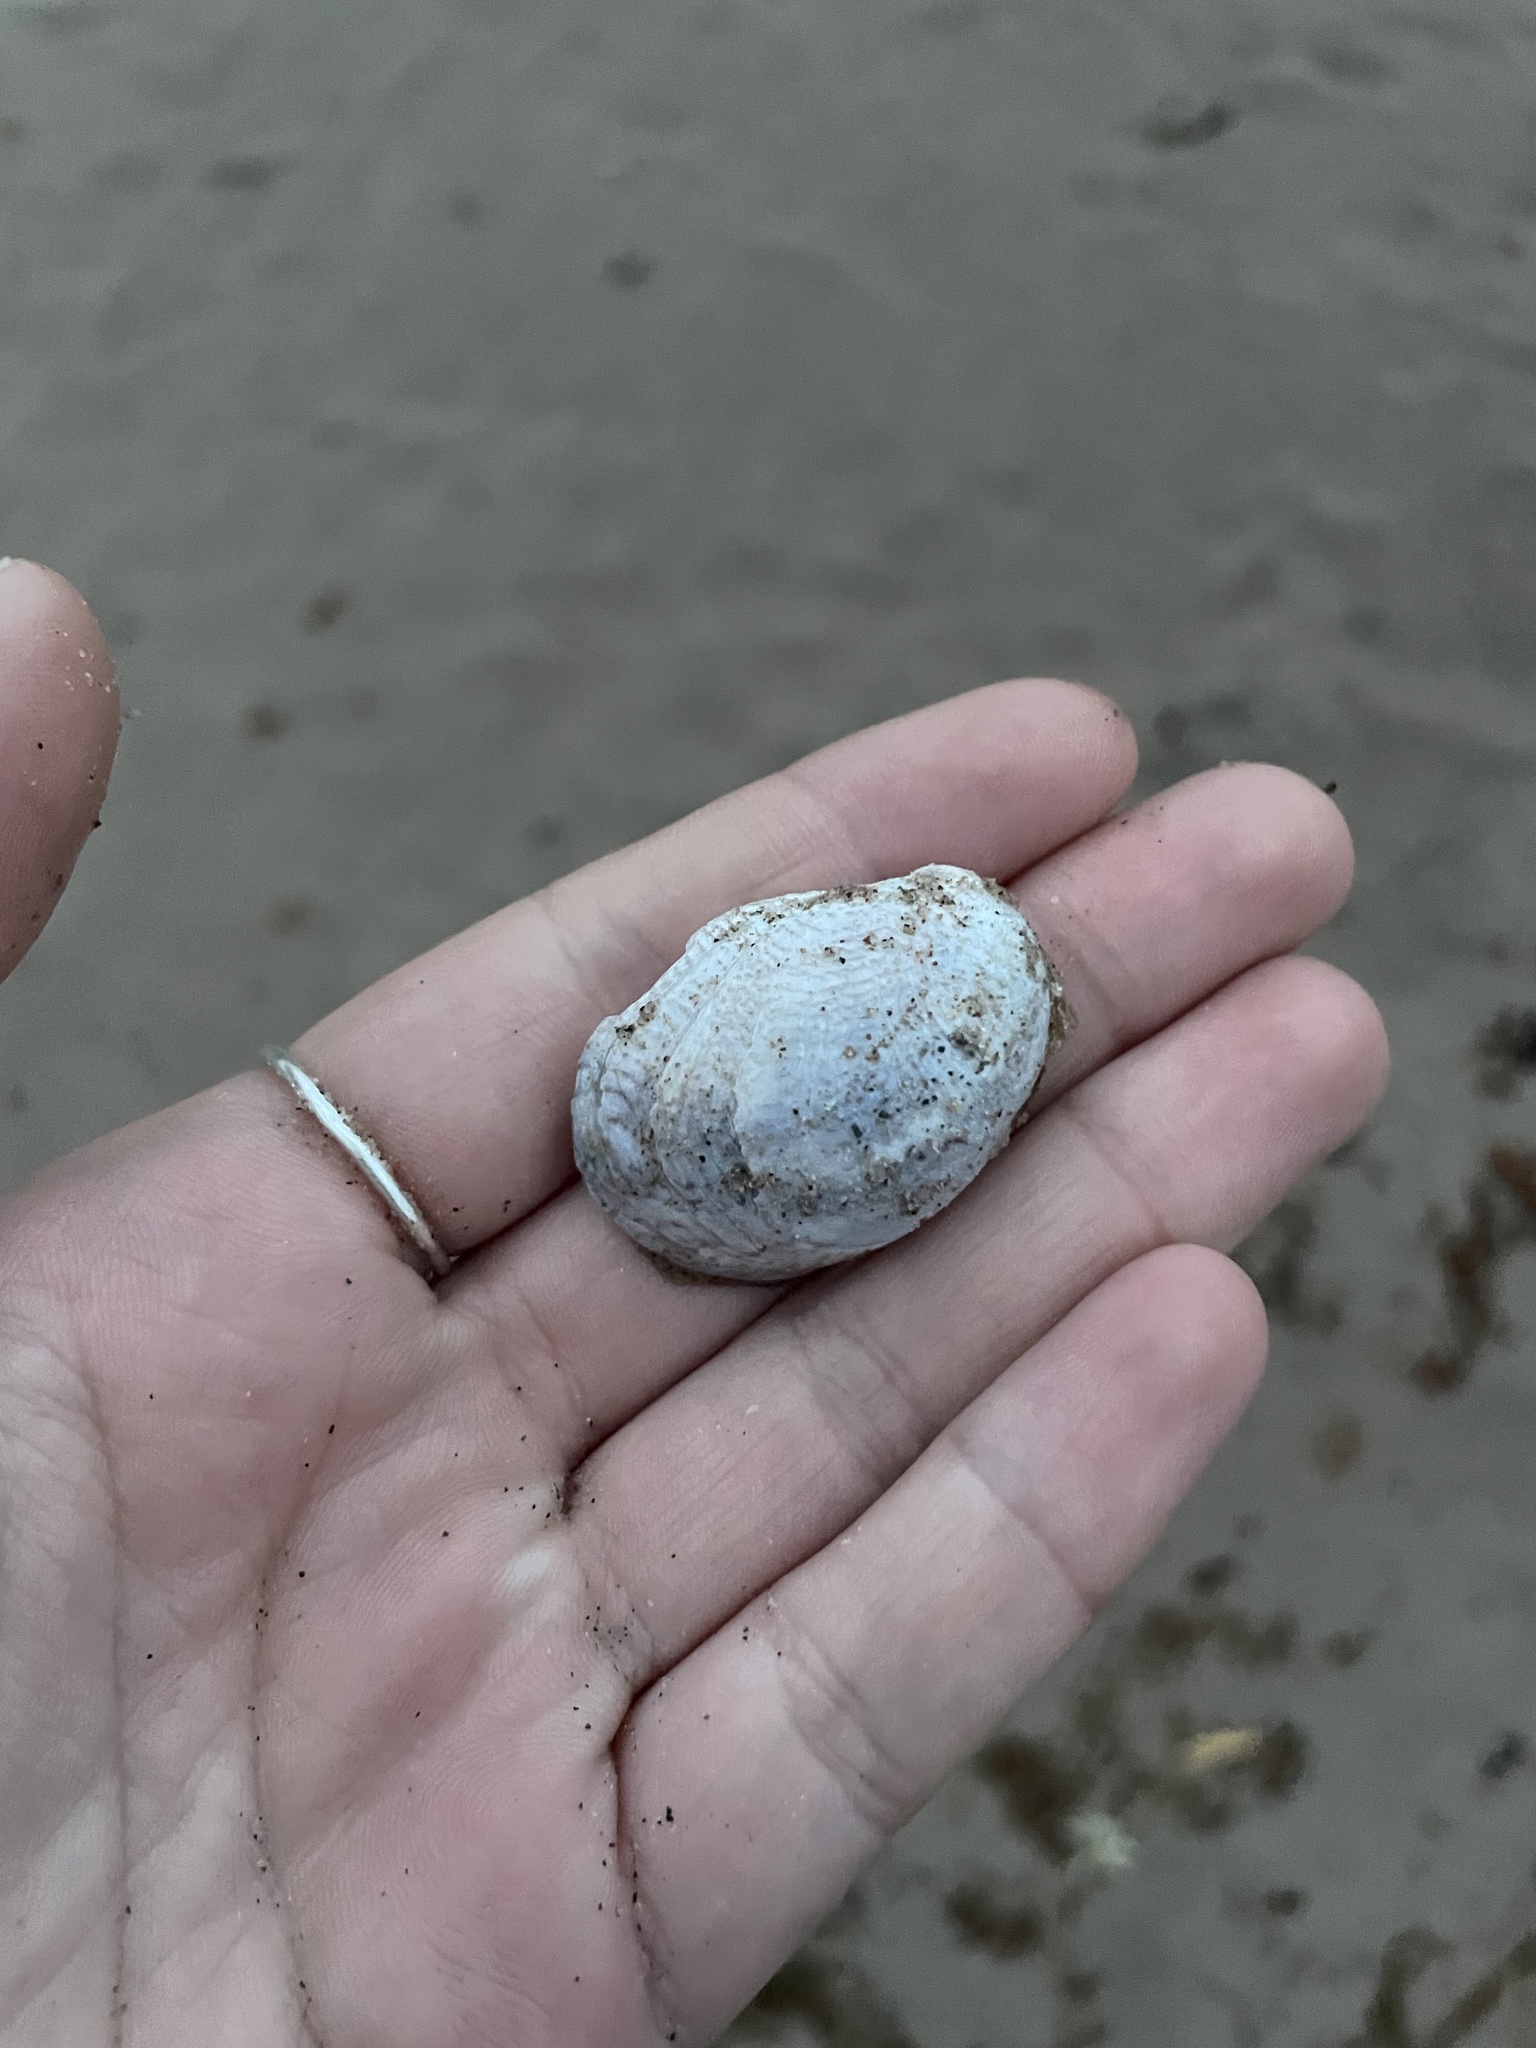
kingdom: Animalia
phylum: Mollusca
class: Gastropoda
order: Littorinimorpha
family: Calyptraeidae
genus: Crepidula
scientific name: Crepidula fornicata
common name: Slipper limpet
